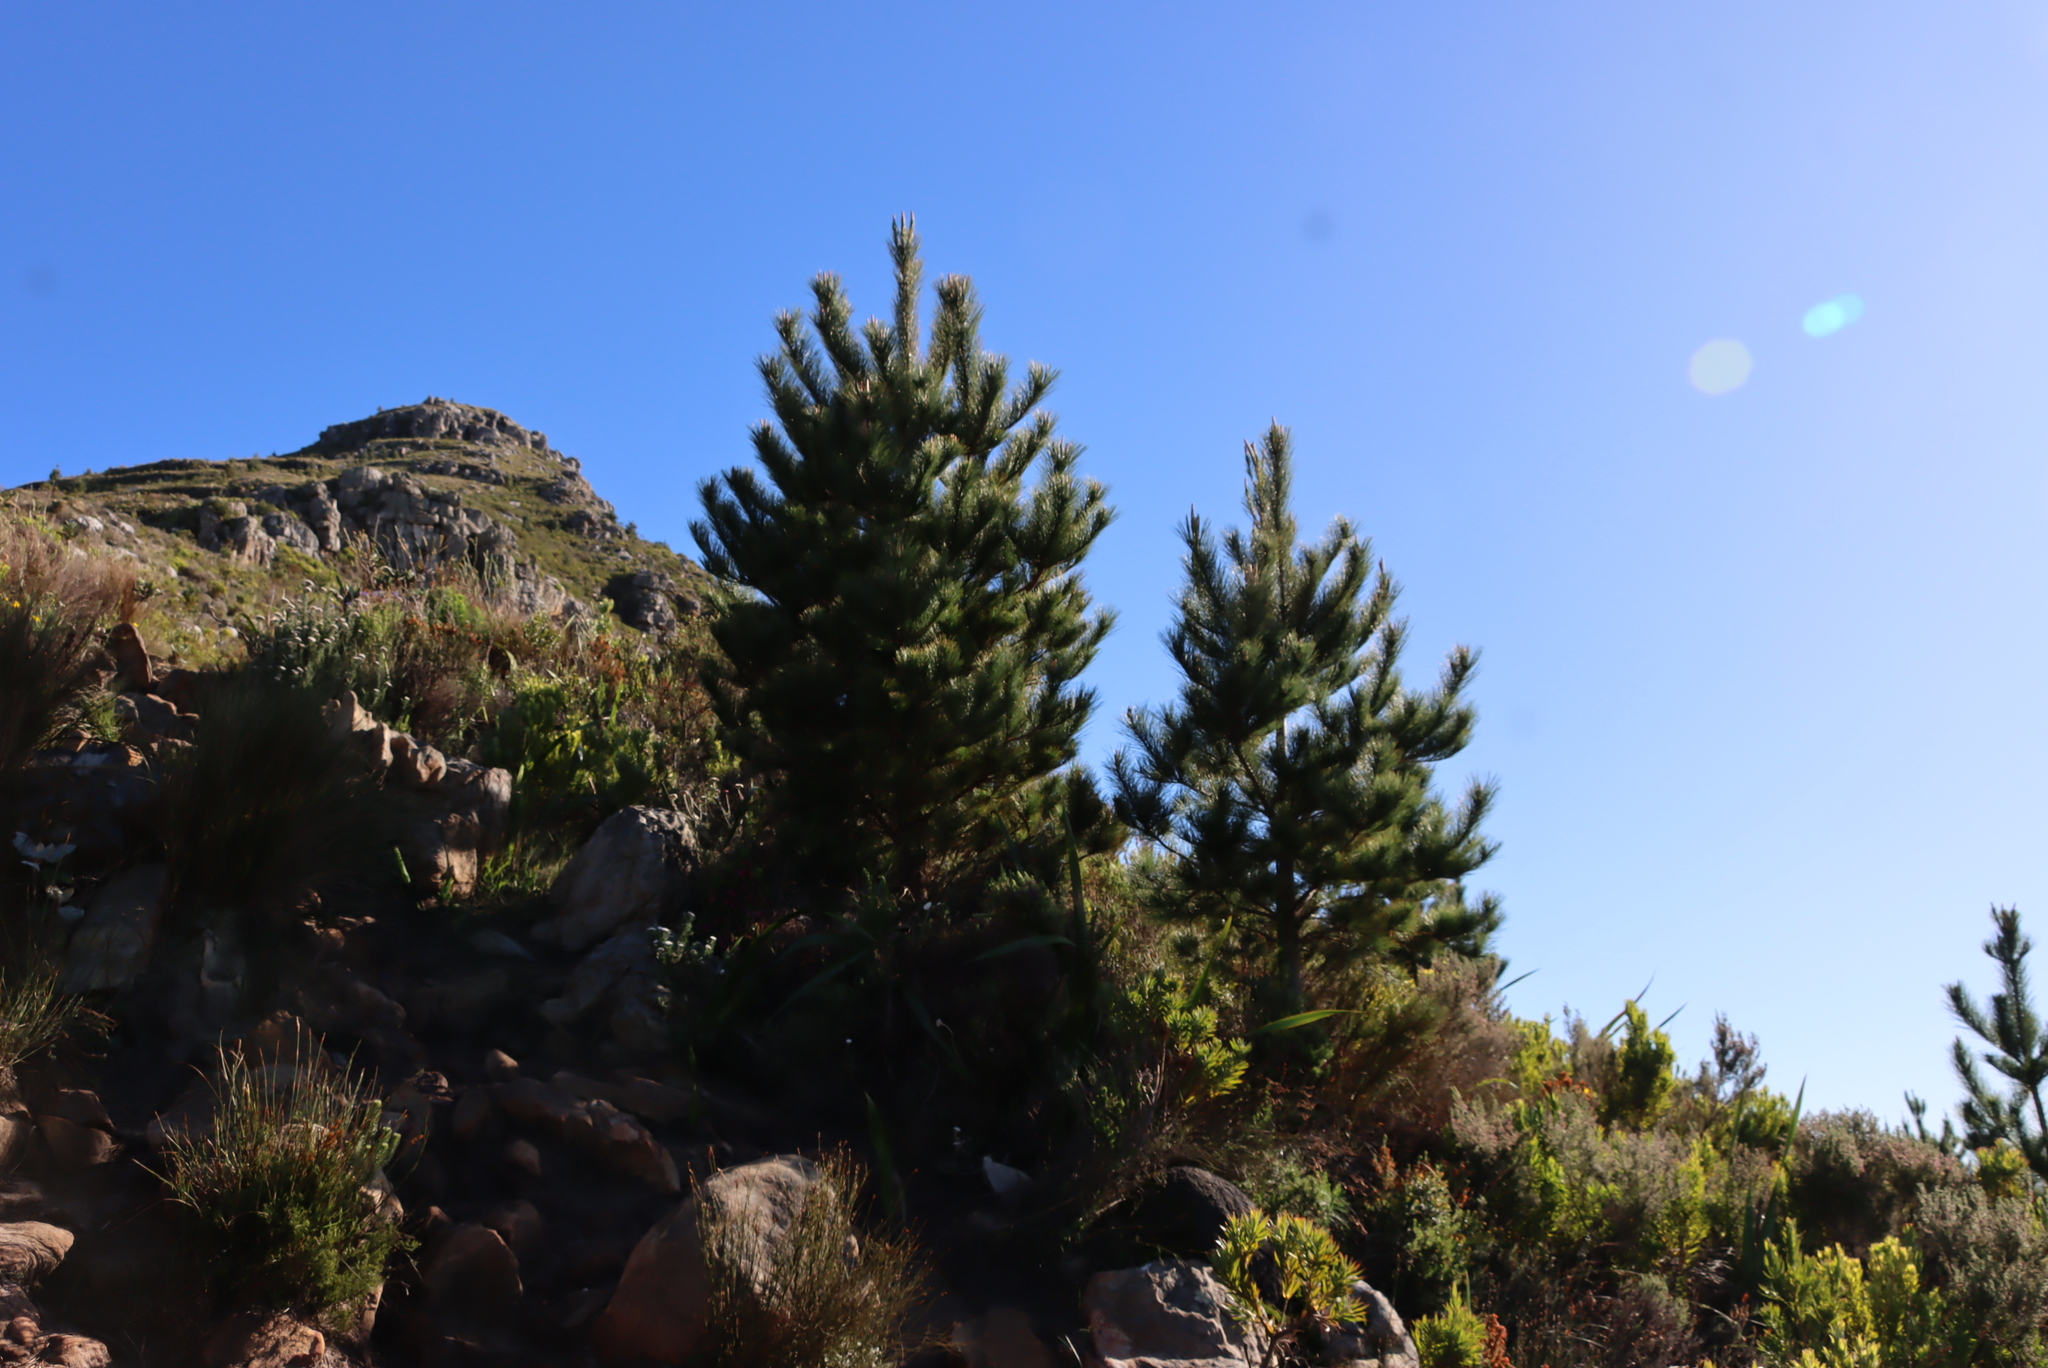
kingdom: Plantae
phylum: Tracheophyta
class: Pinopsida
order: Pinales
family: Pinaceae
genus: Pinus
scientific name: Pinus radiata
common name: Monterey pine
